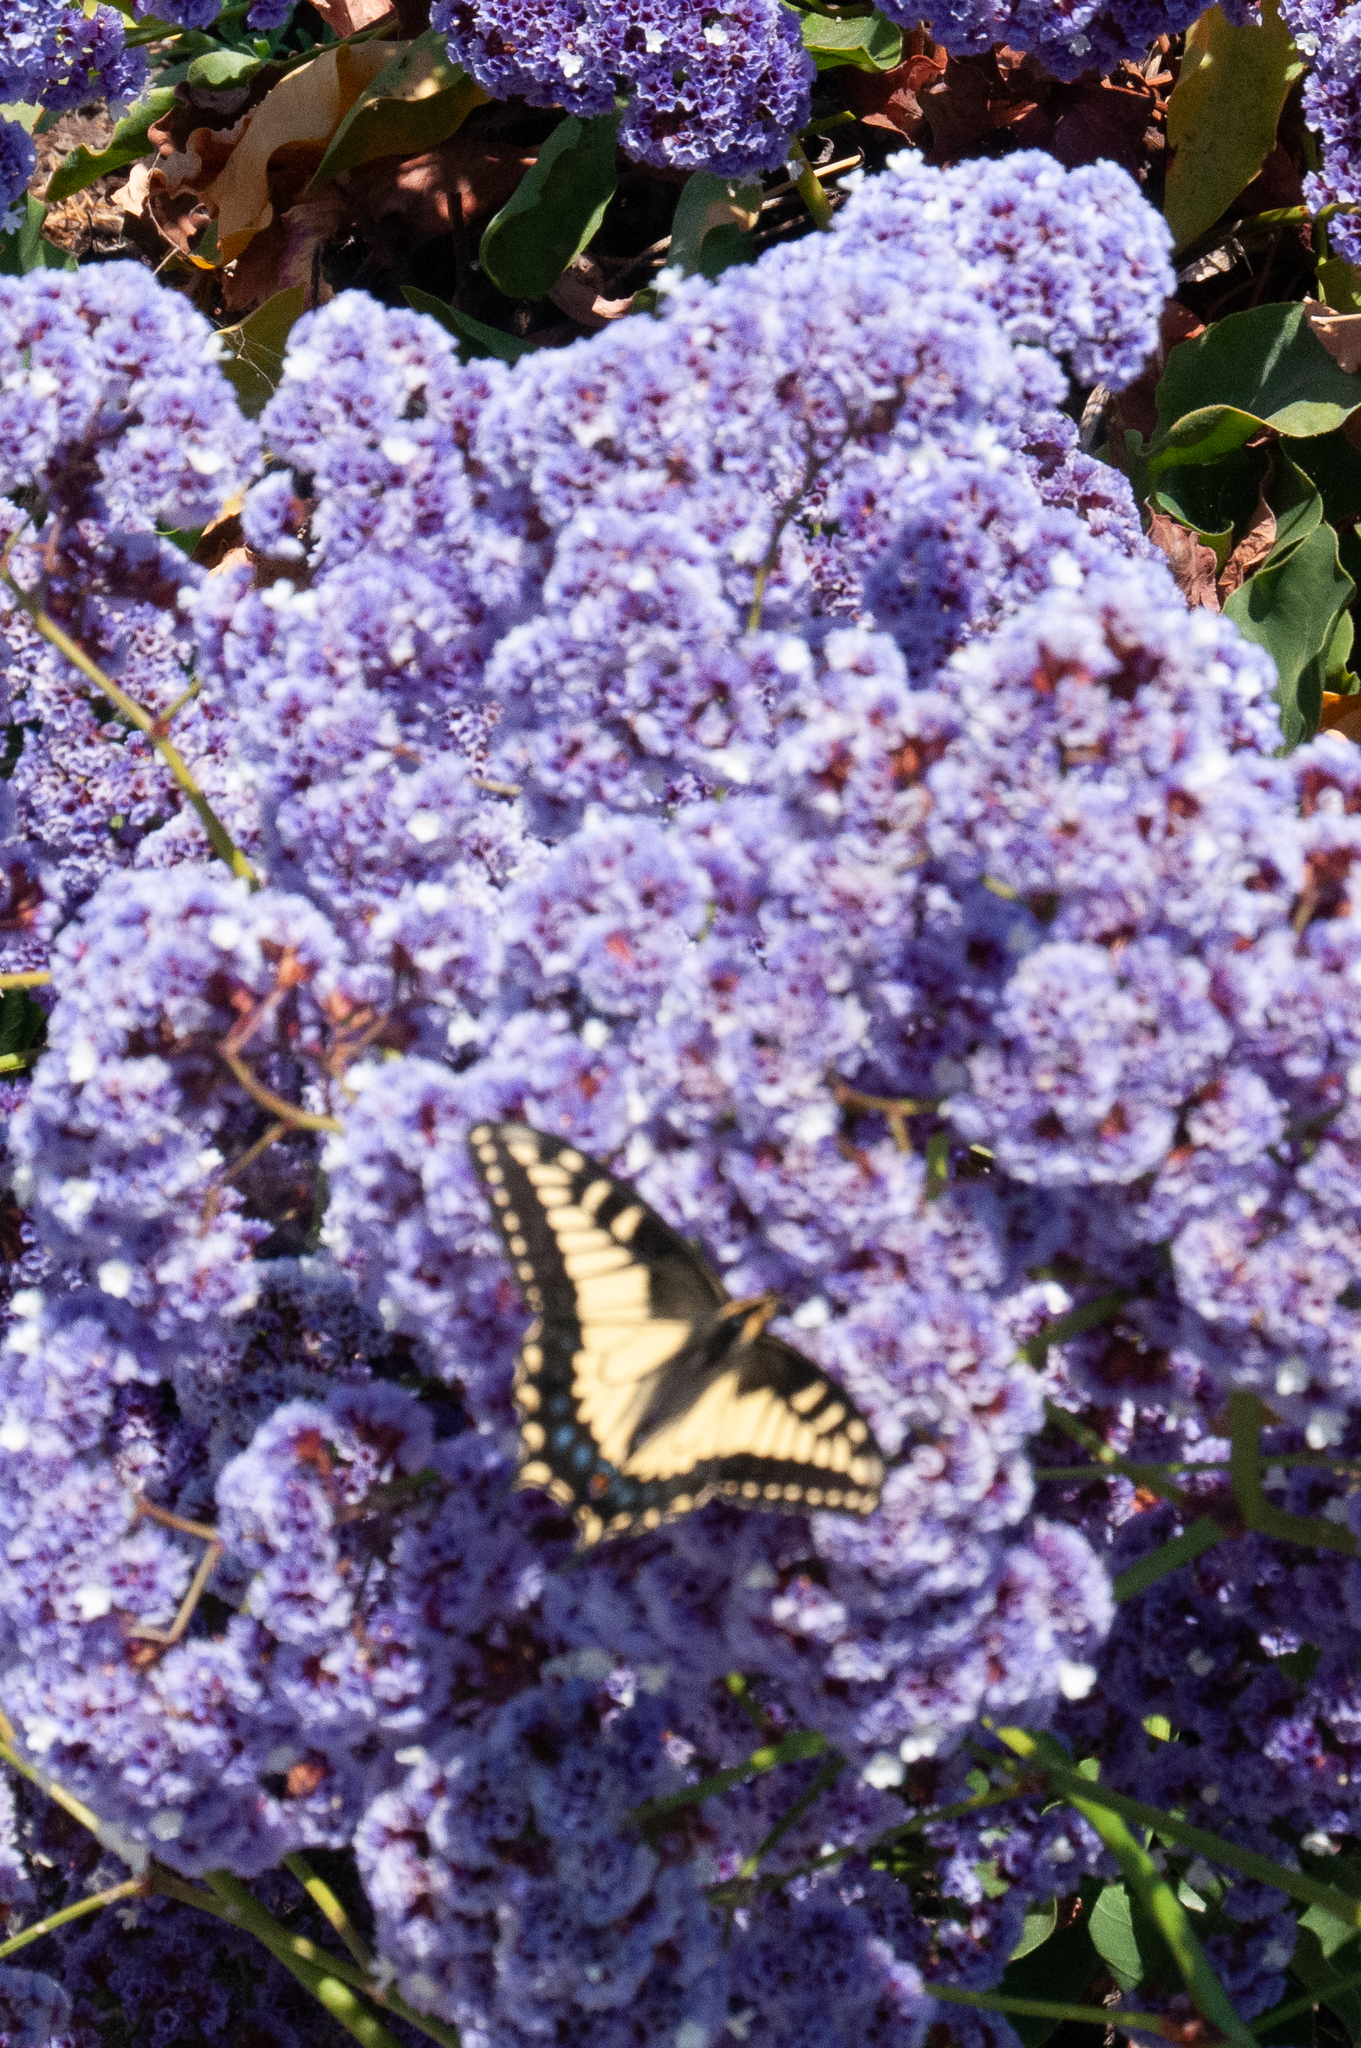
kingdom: Animalia
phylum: Arthropoda
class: Insecta
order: Lepidoptera
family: Papilionidae
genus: Papilio
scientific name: Papilio zelicaon
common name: Anise swallowtail
